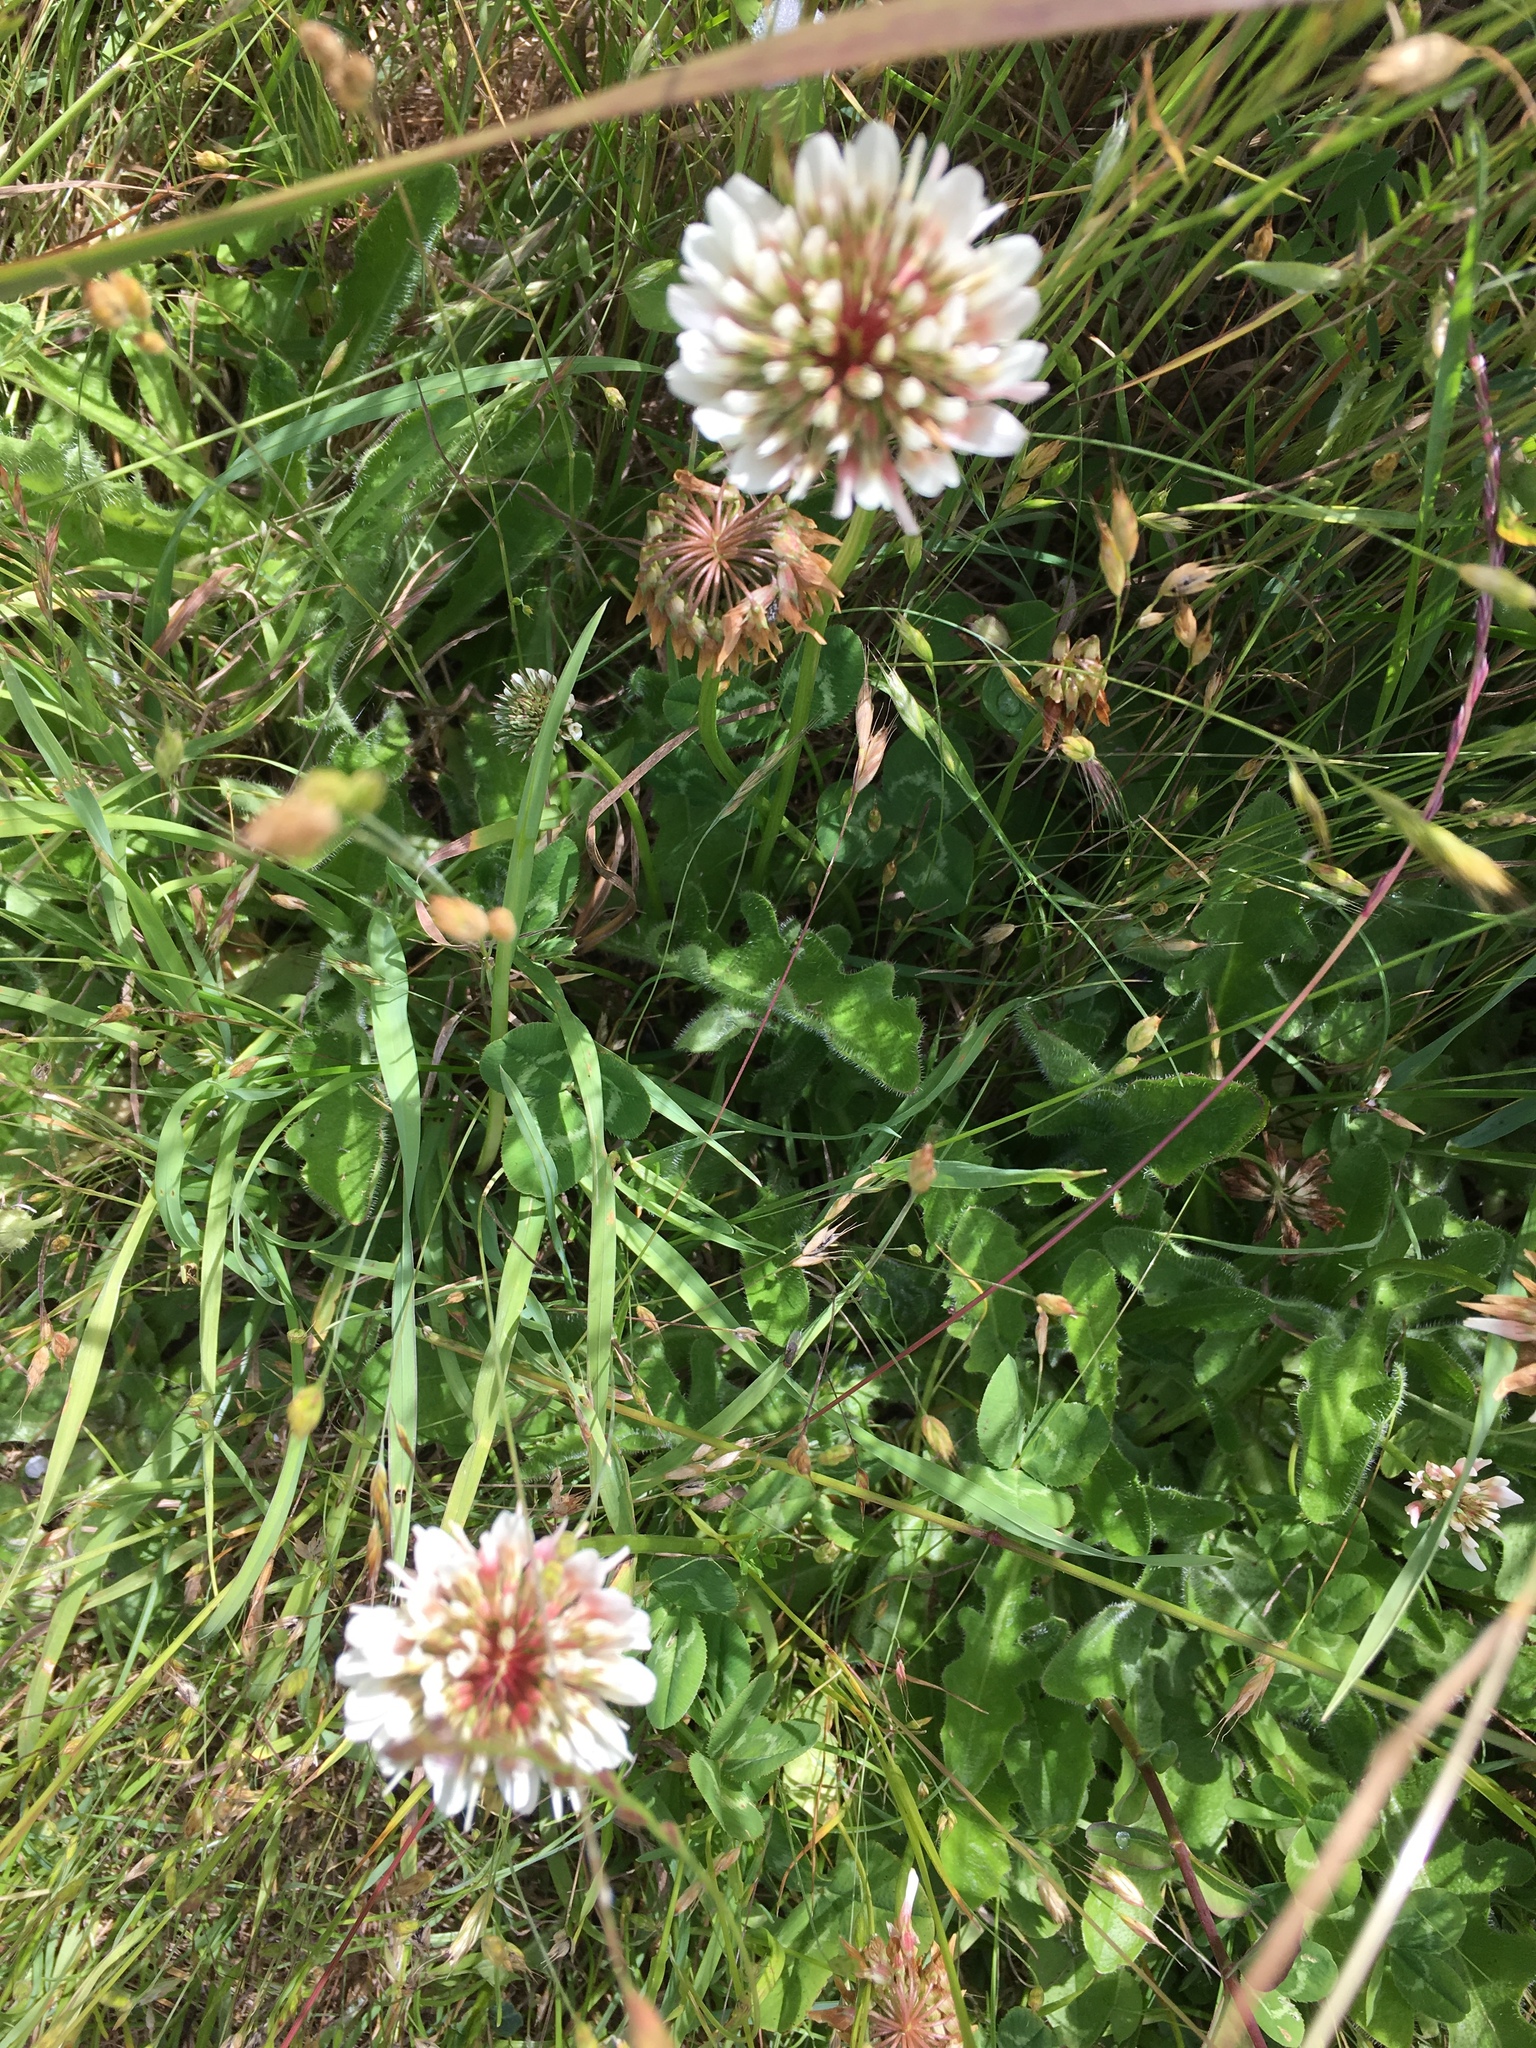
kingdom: Plantae
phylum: Tracheophyta
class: Magnoliopsida
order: Fabales
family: Fabaceae
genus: Trifolium
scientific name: Trifolium repens
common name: White clover
